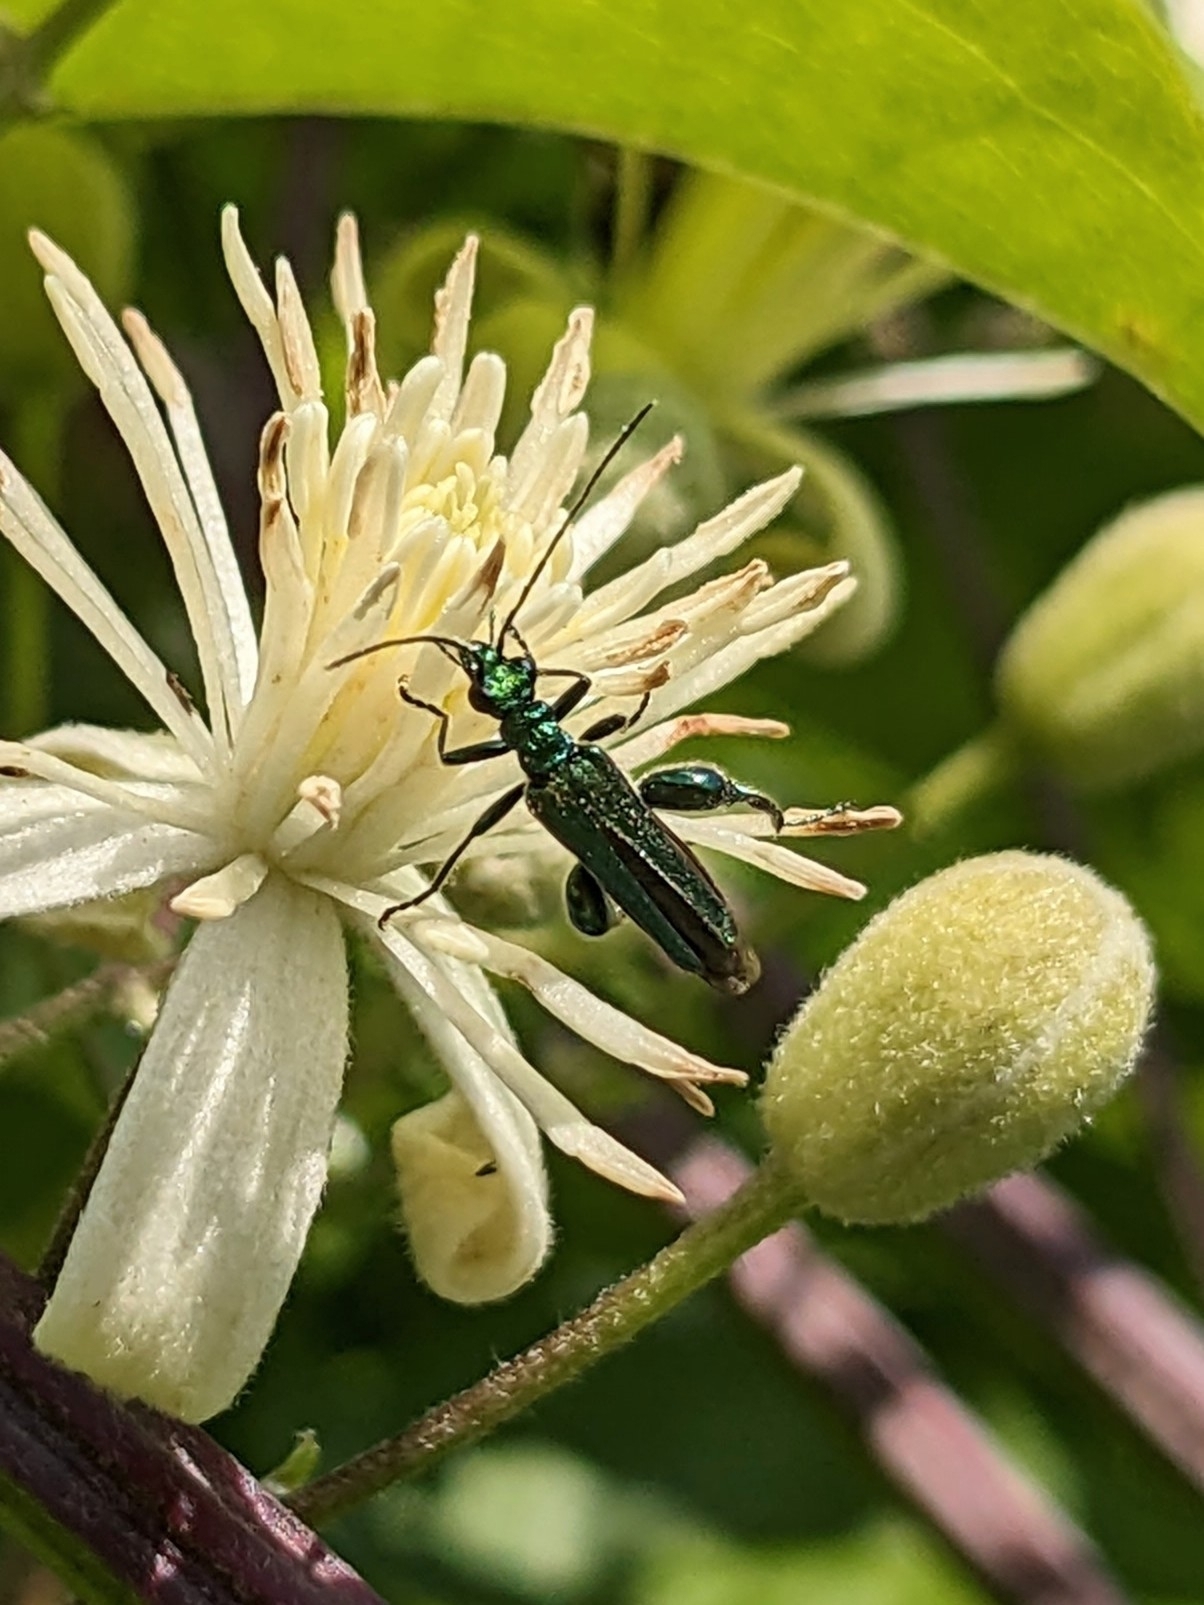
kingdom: Animalia
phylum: Arthropoda
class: Insecta
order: Coleoptera
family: Oedemeridae
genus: Oedemera
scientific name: Oedemera nobilis
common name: Swollen-thighed beetle
